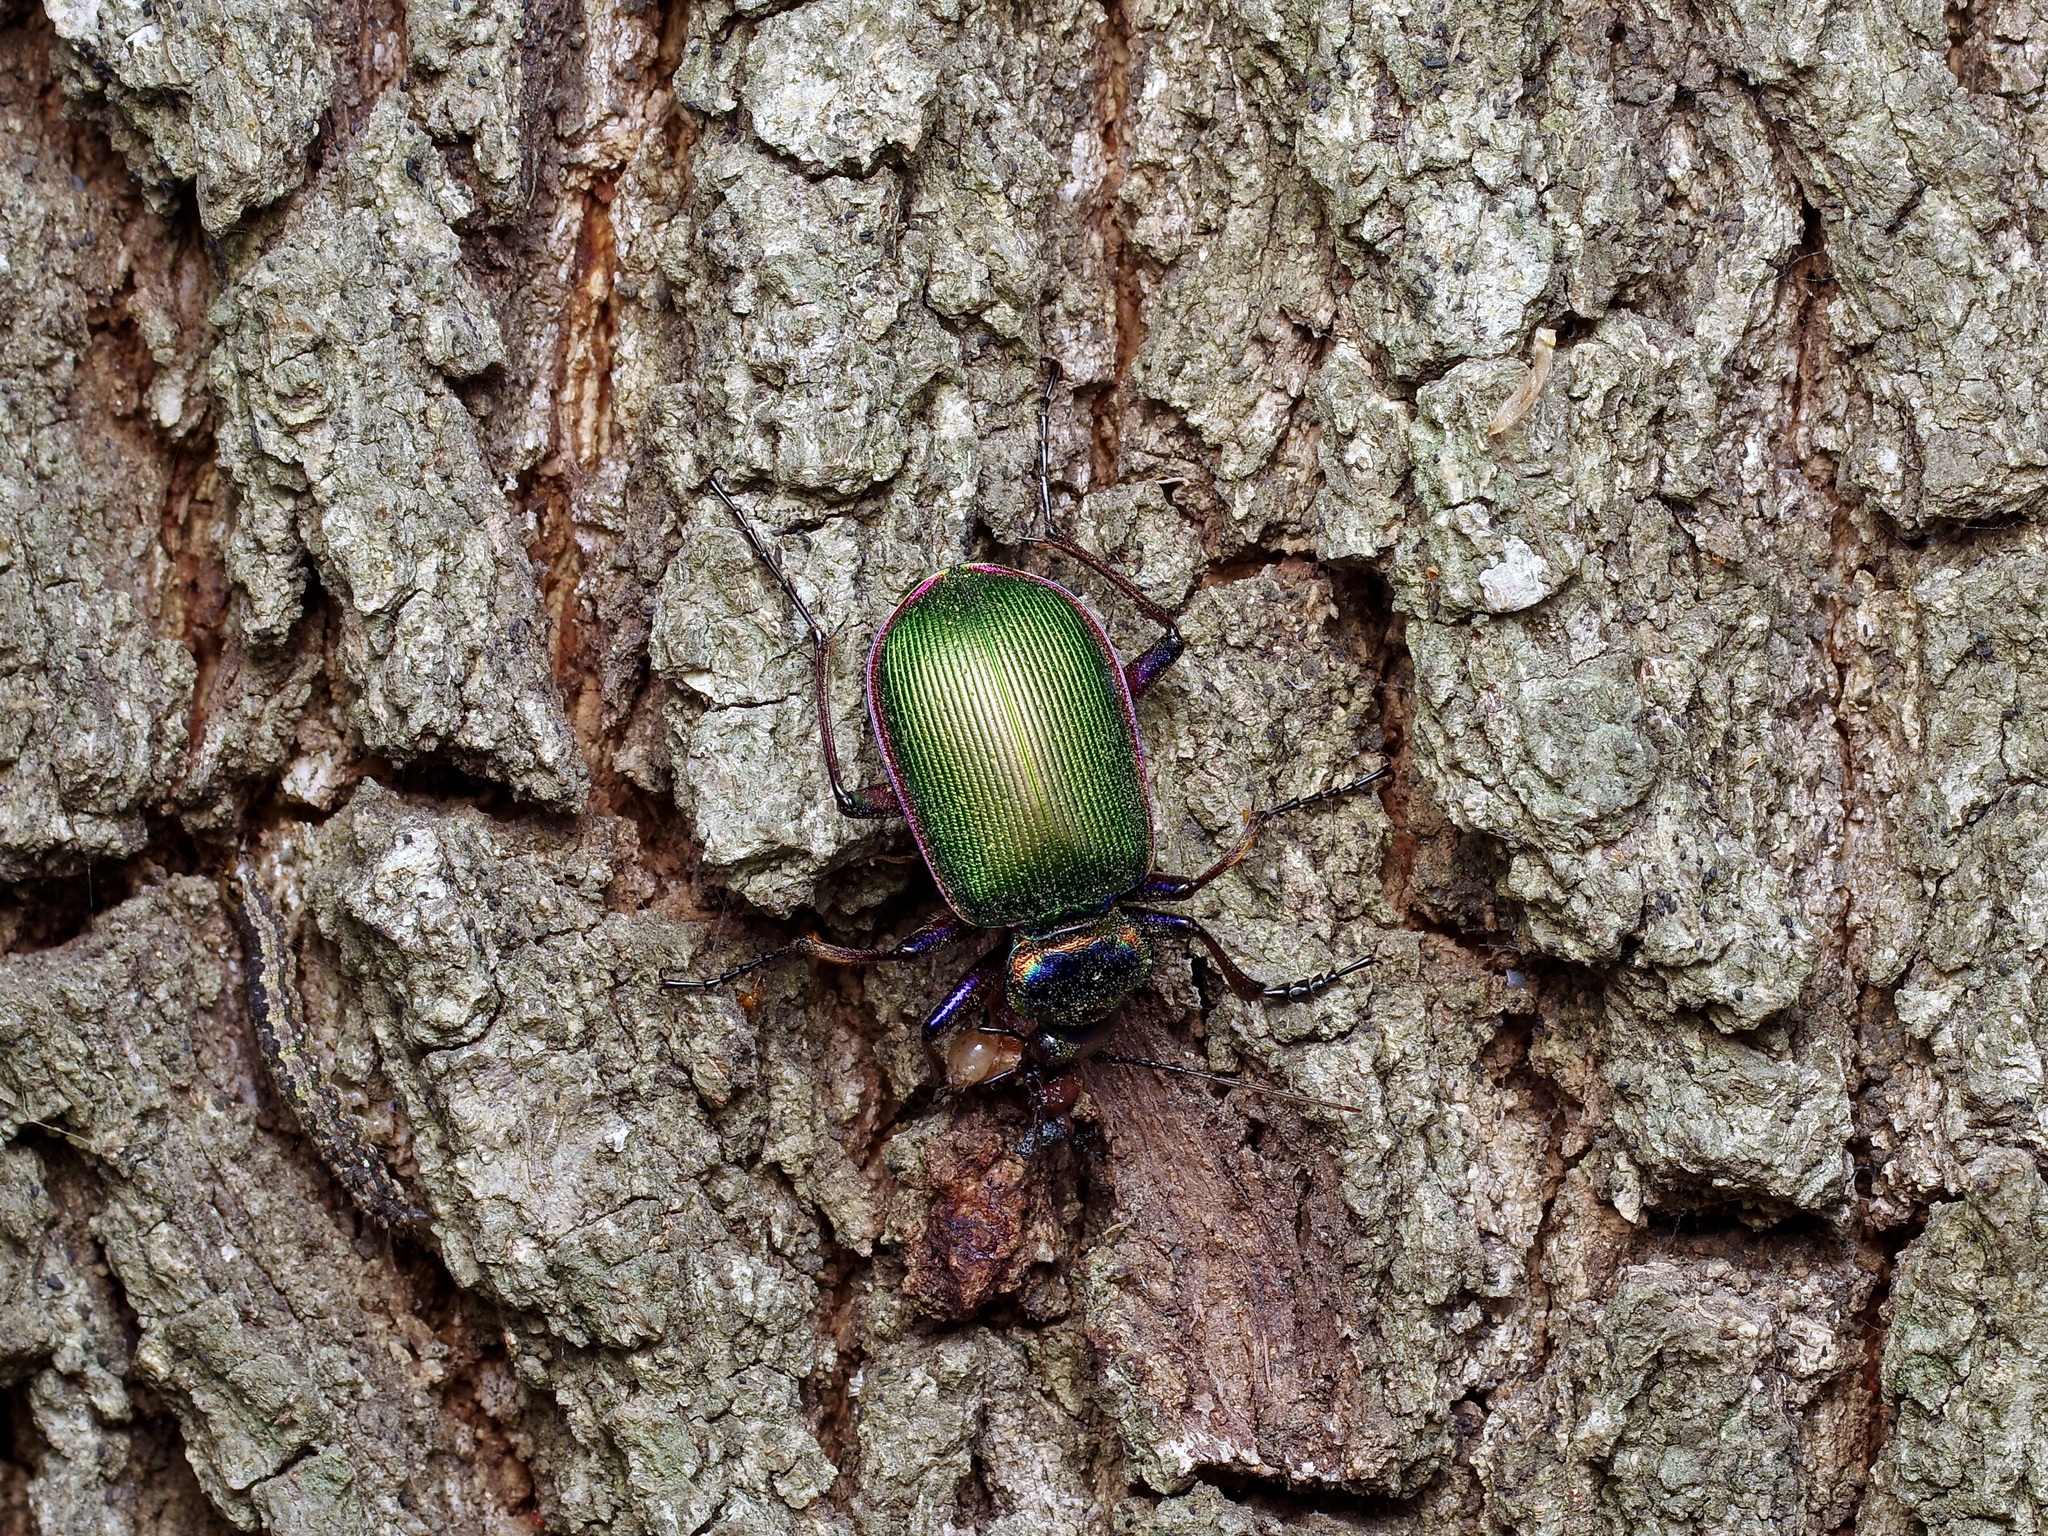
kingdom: Animalia
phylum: Arthropoda
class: Insecta
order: Coleoptera
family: Carabidae
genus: Calosoma
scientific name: Calosoma scrutator
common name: Fiery searcher beetle
